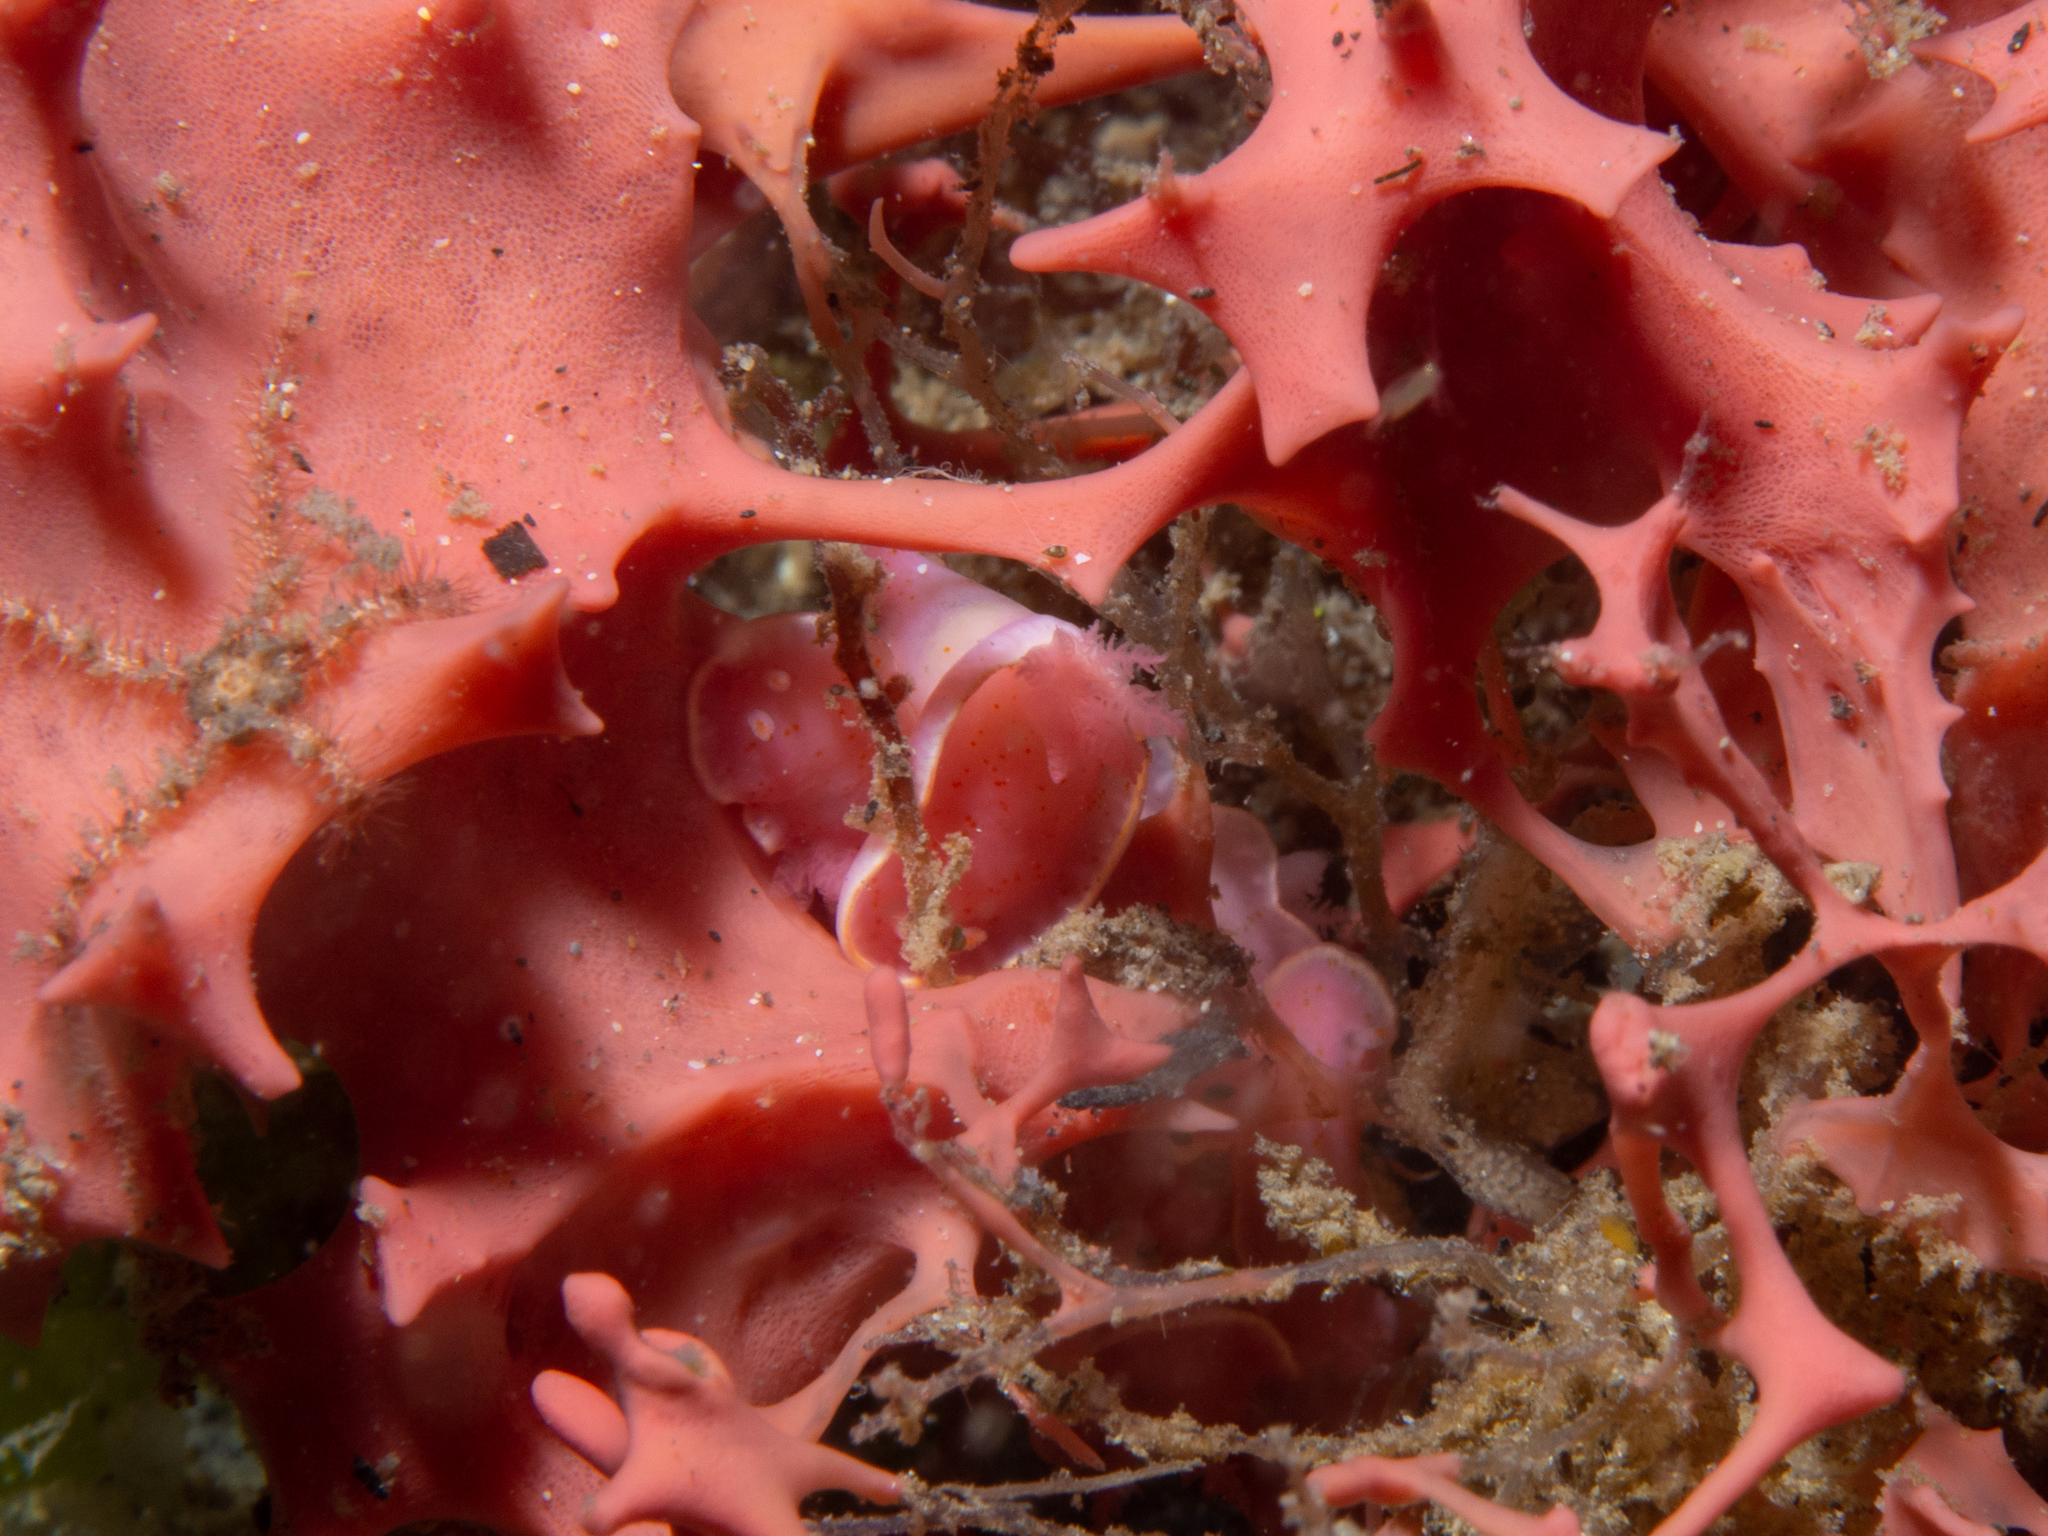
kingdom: Animalia
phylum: Mollusca
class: Gastropoda
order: Nudibranchia
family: Chromodorididae
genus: Verconia
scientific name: Verconia haliclona
